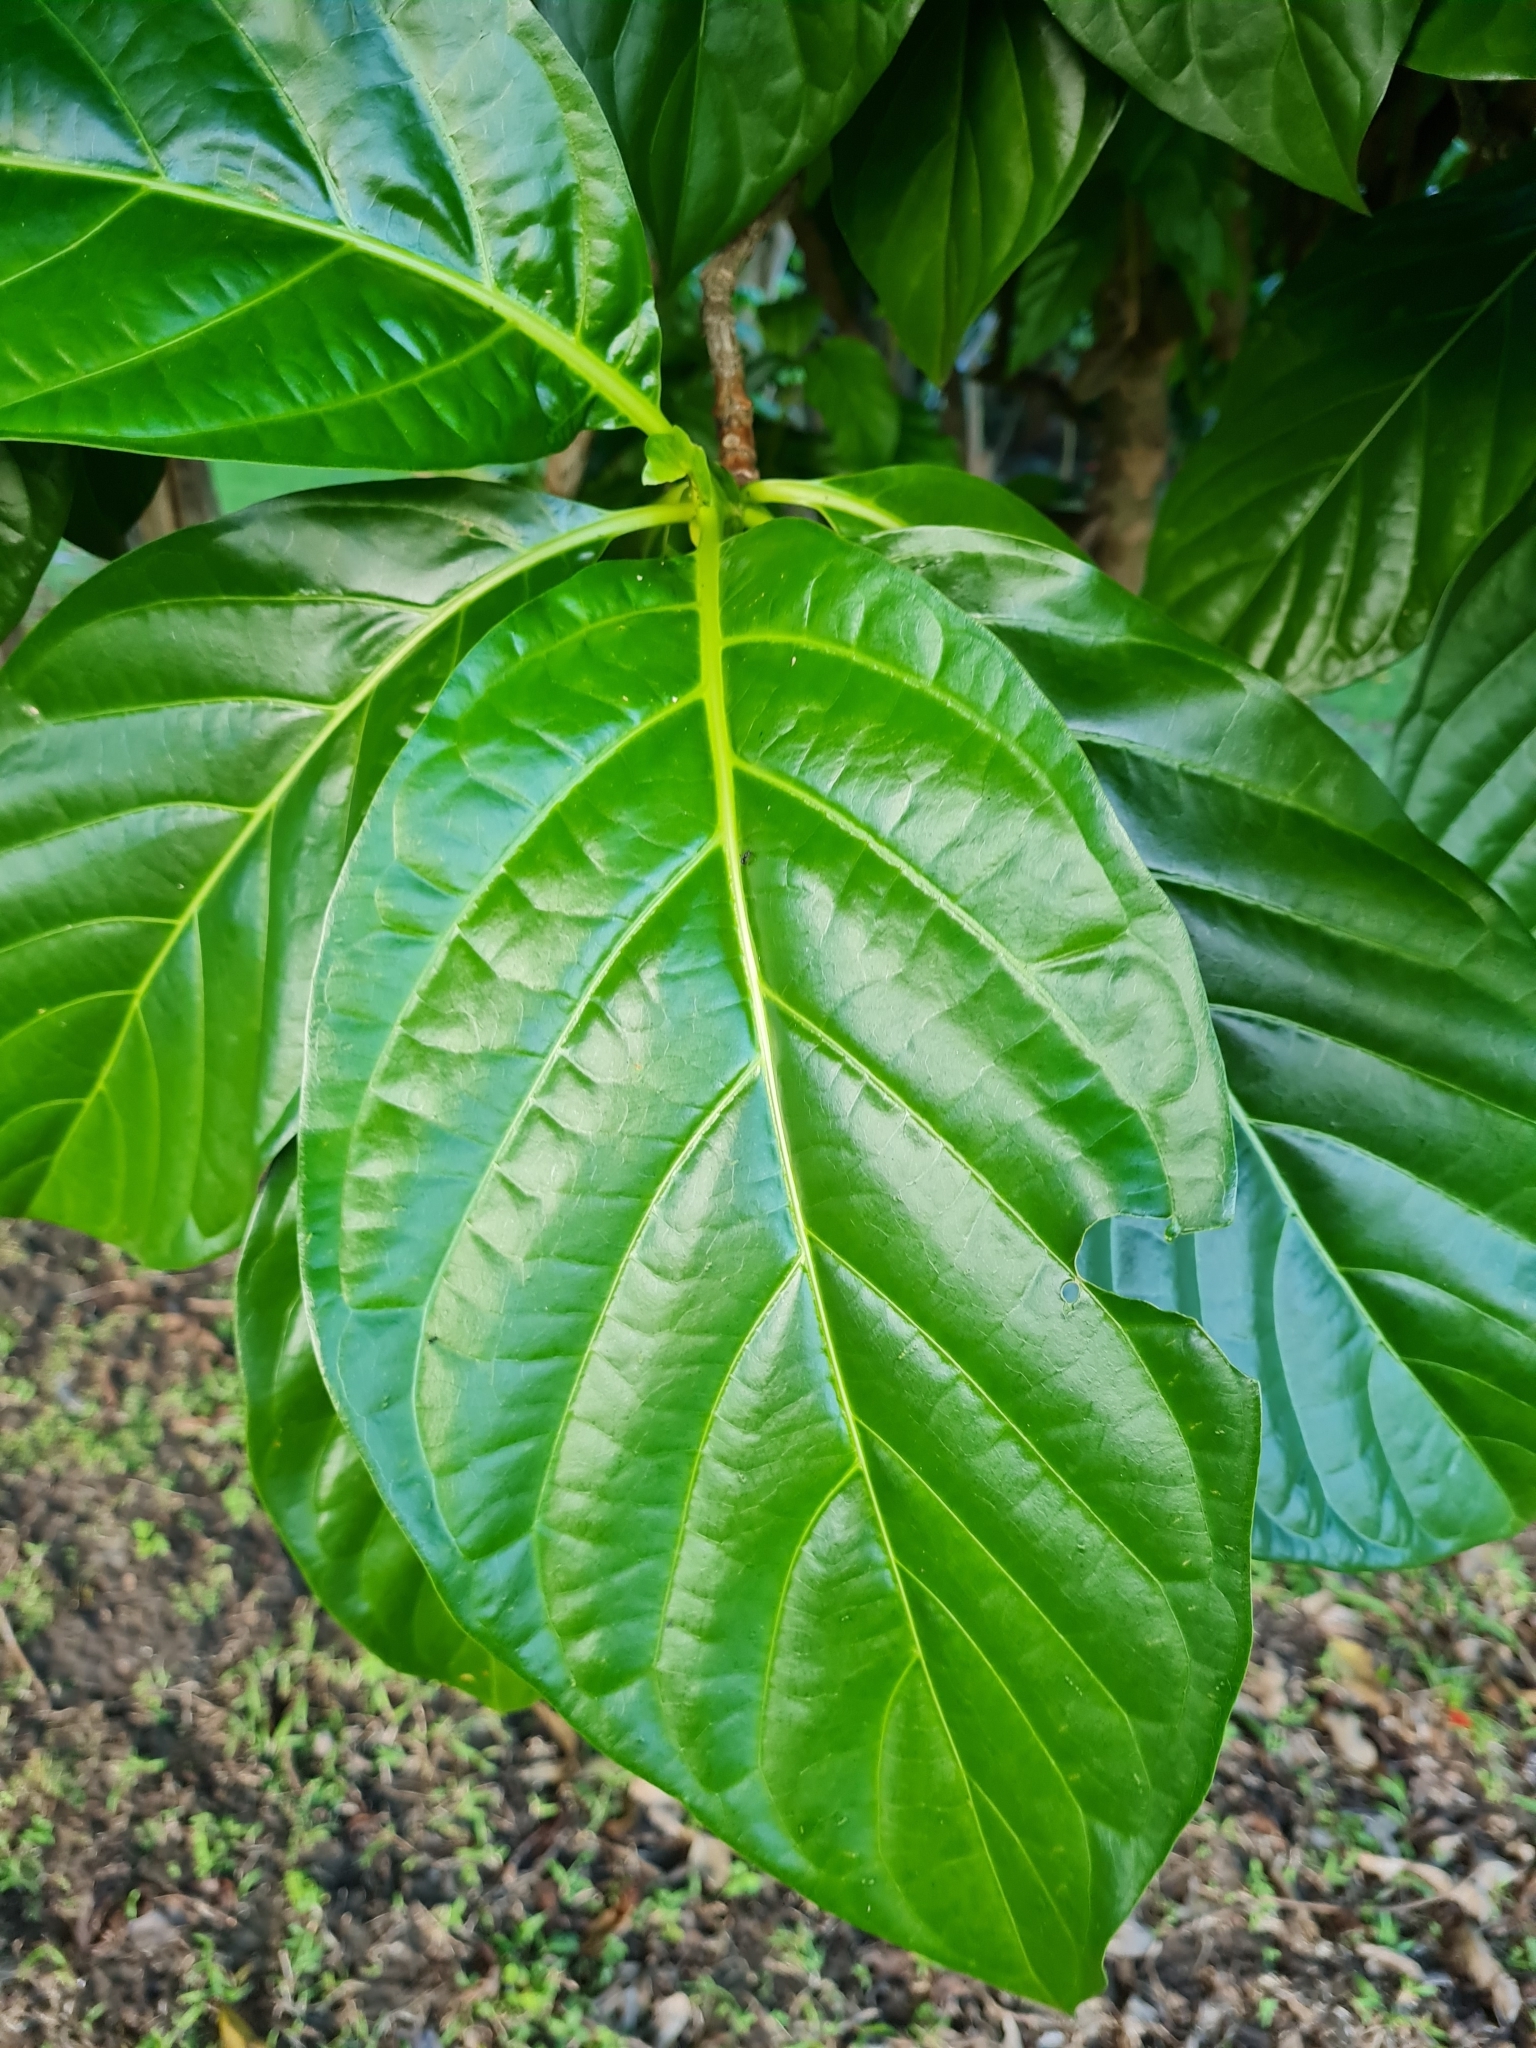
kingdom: Plantae
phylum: Tracheophyta
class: Magnoliopsida
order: Gentianales
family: Rubiaceae
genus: Morinda
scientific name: Morinda citrifolia
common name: Indian-mulberry
